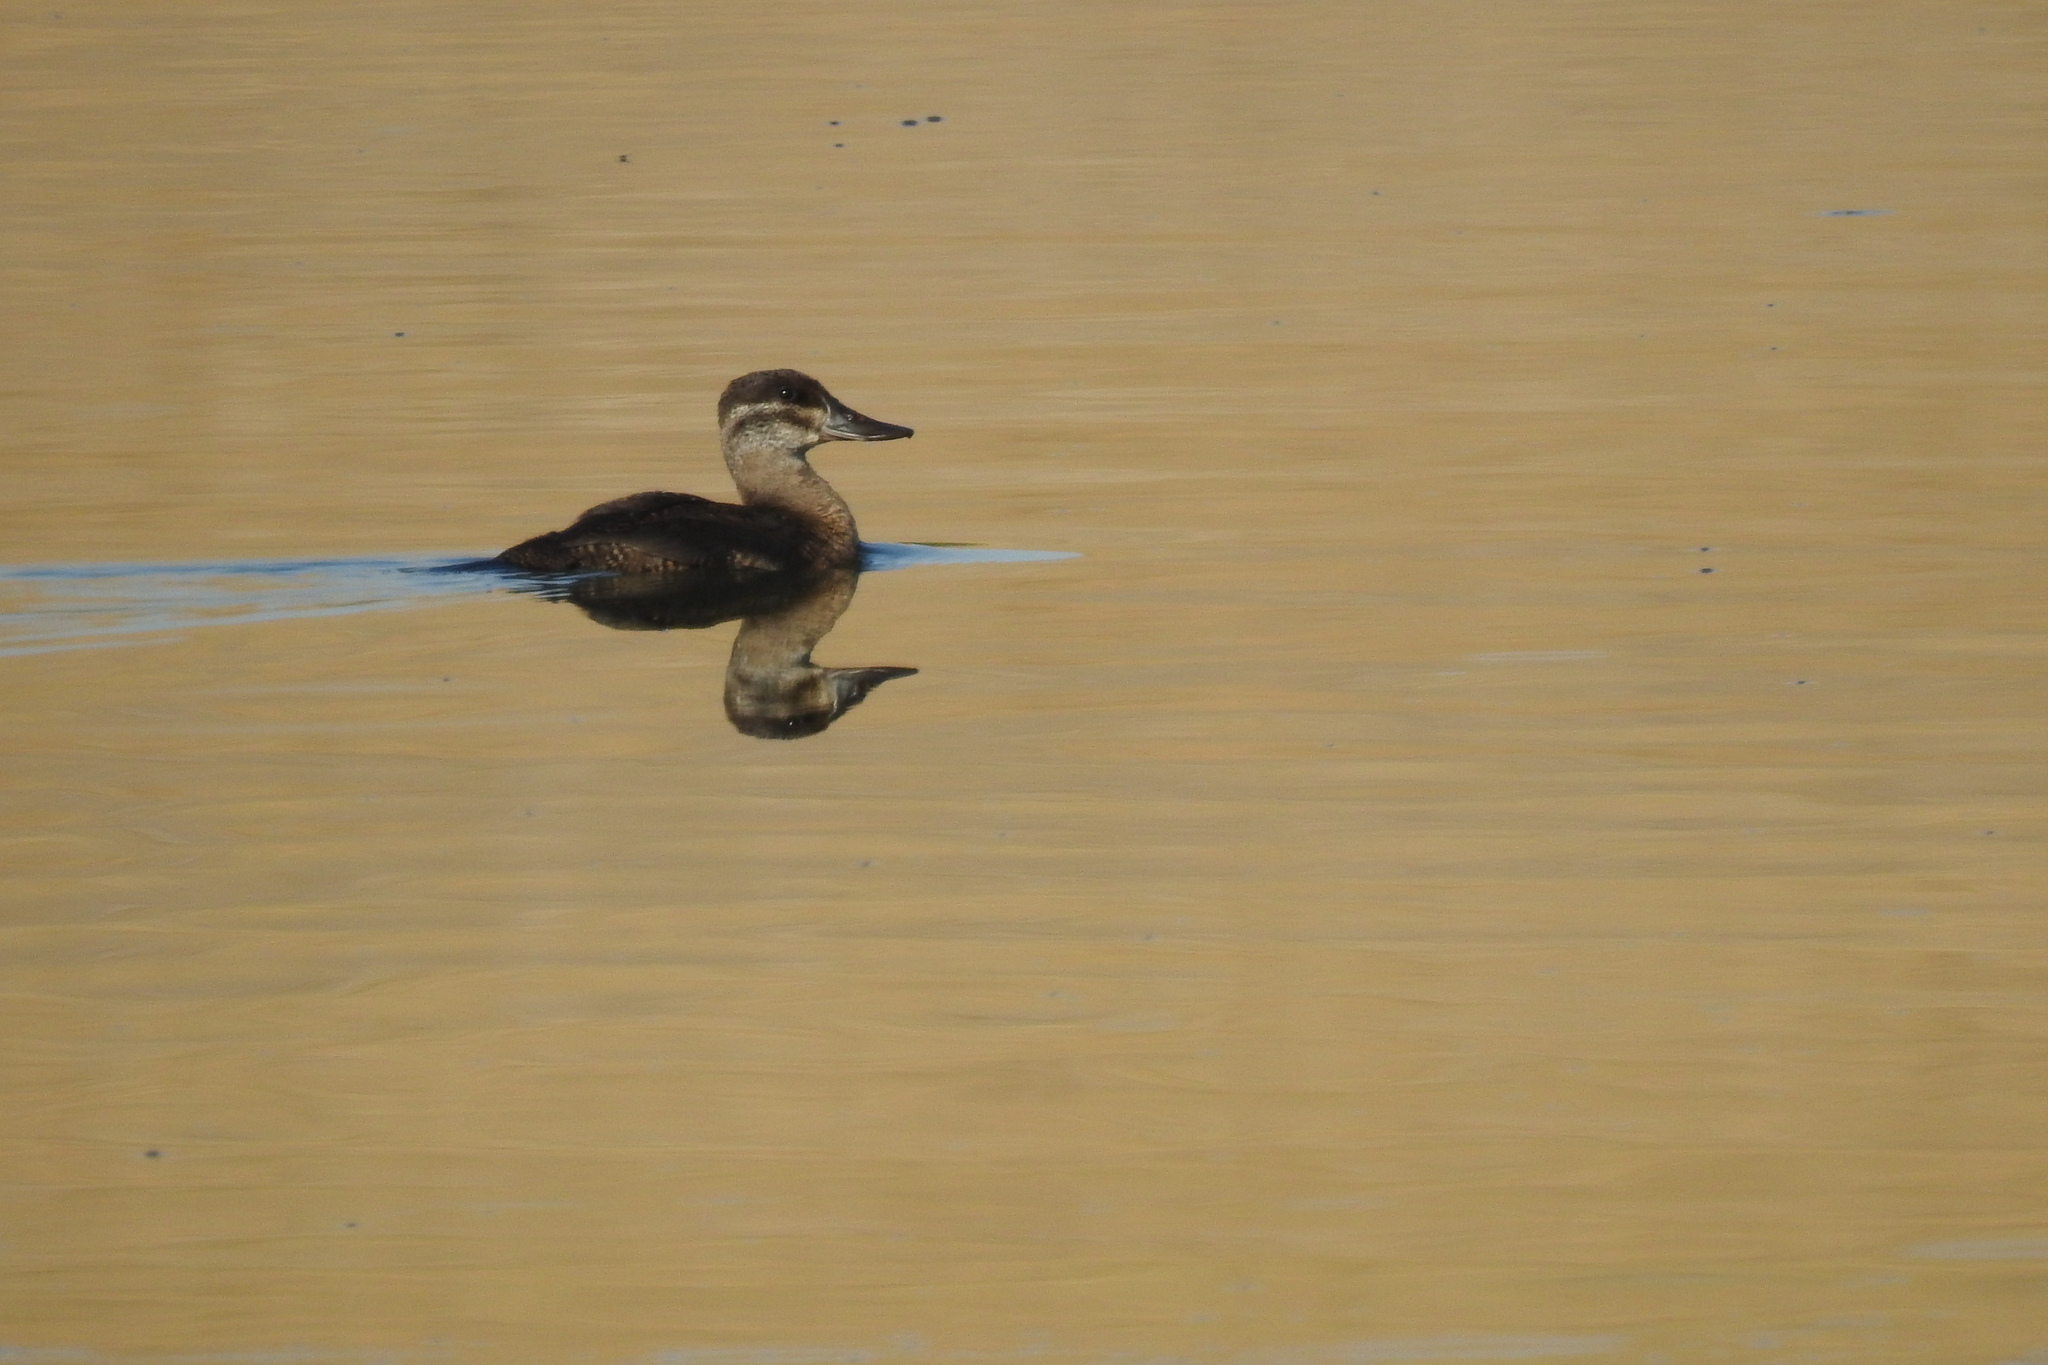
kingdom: Animalia
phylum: Chordata
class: Aves
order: Anseriformes
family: Anatidae
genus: Oxyura
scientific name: Oxyura jamaicensis
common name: Ruddy duck
